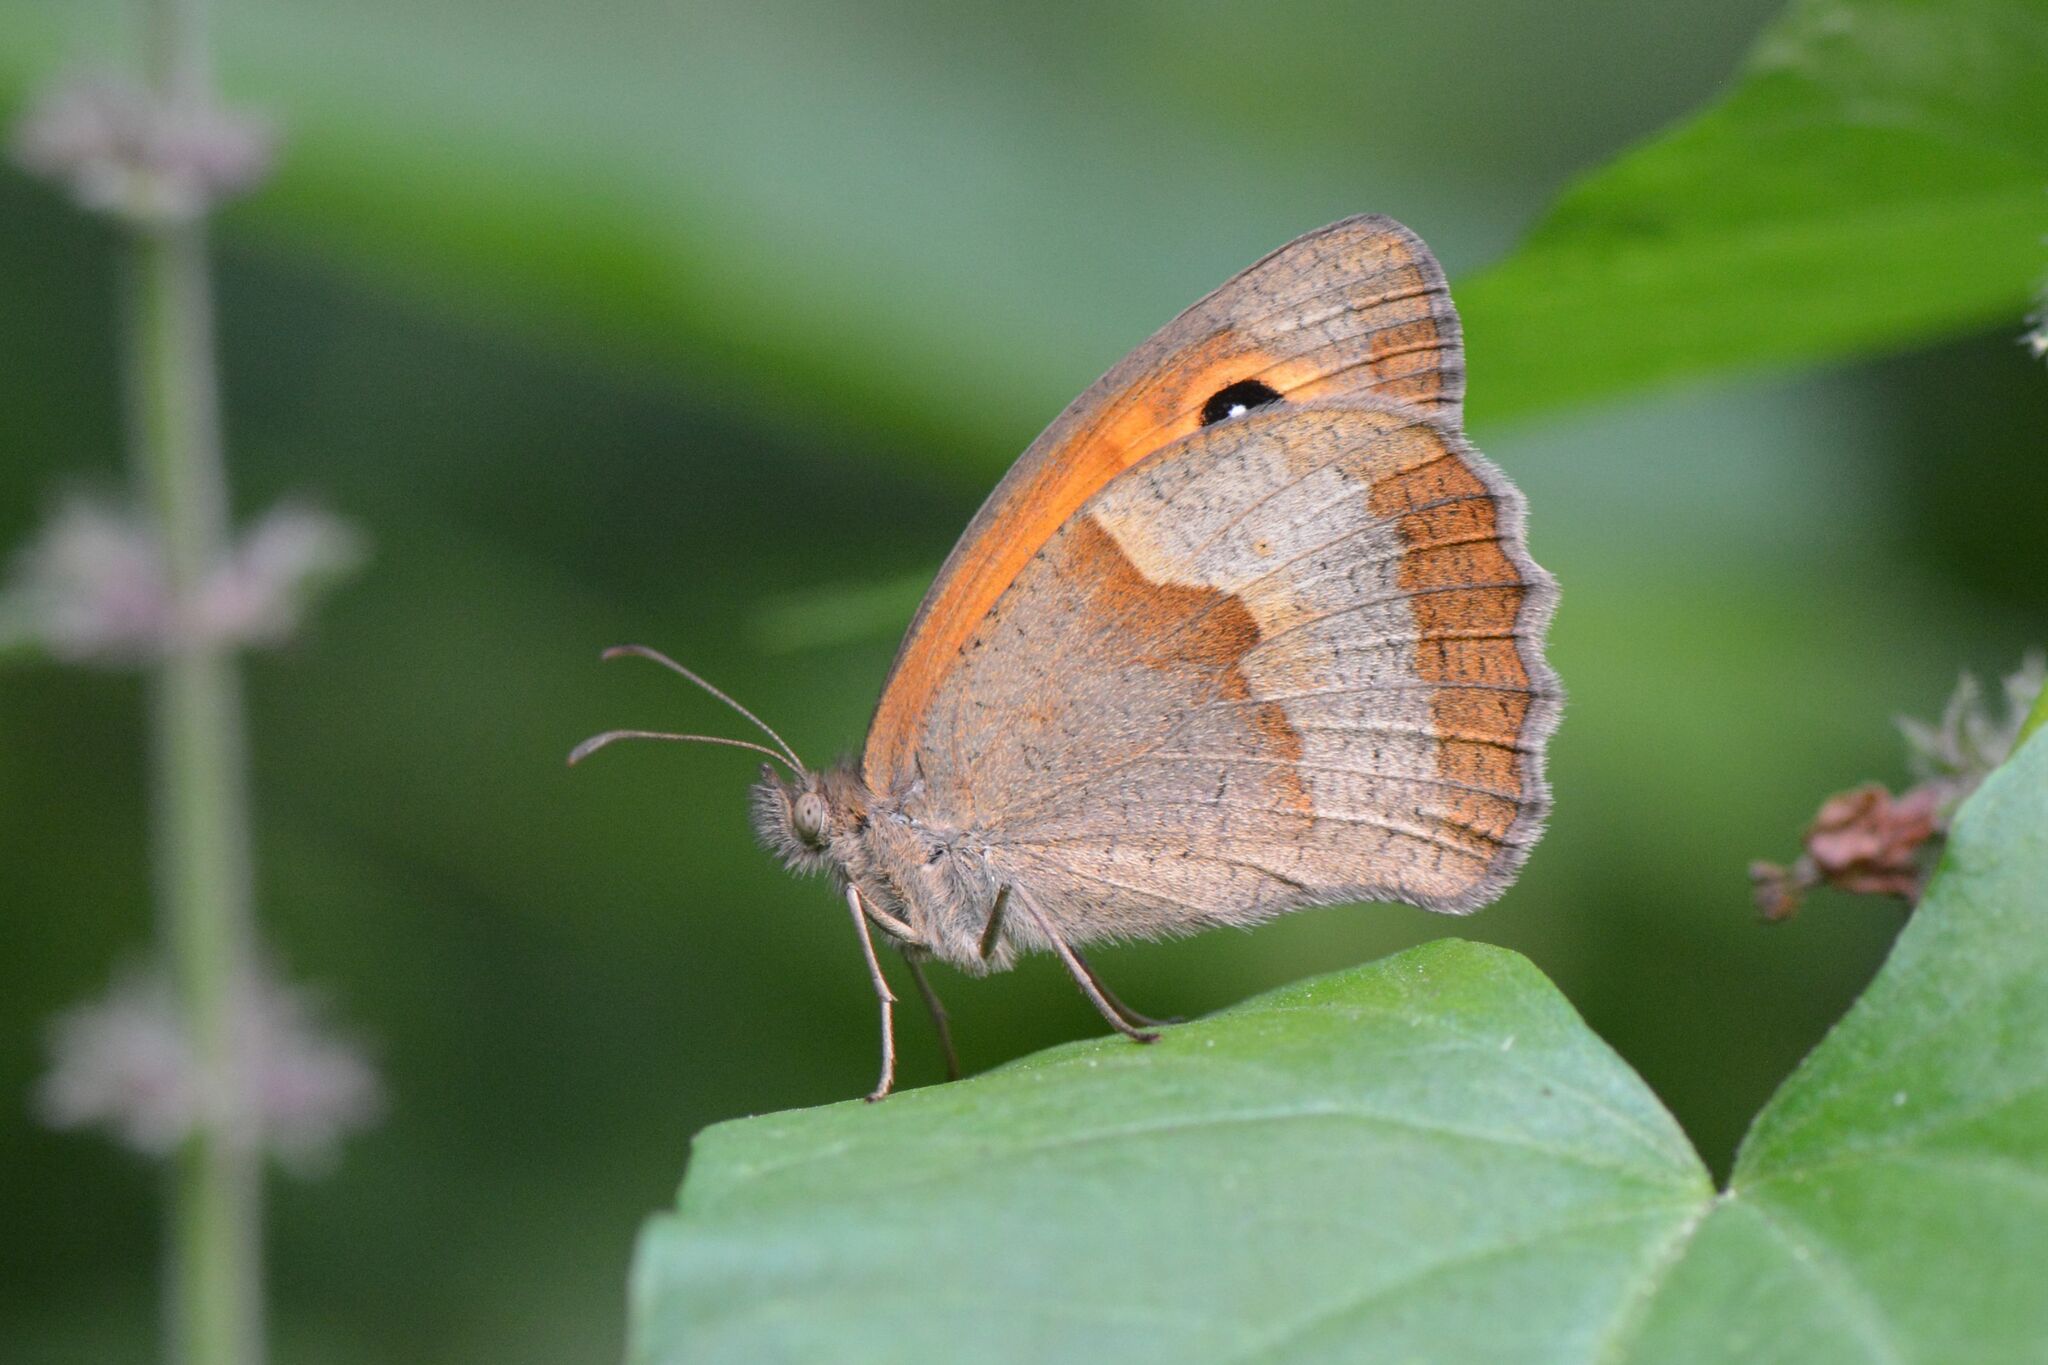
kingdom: Animalia
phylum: Arthropoda
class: Insecta
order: Lepidoptera
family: Nymphalidae
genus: Maniola
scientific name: Maniola jurtina
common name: Meadow brown
